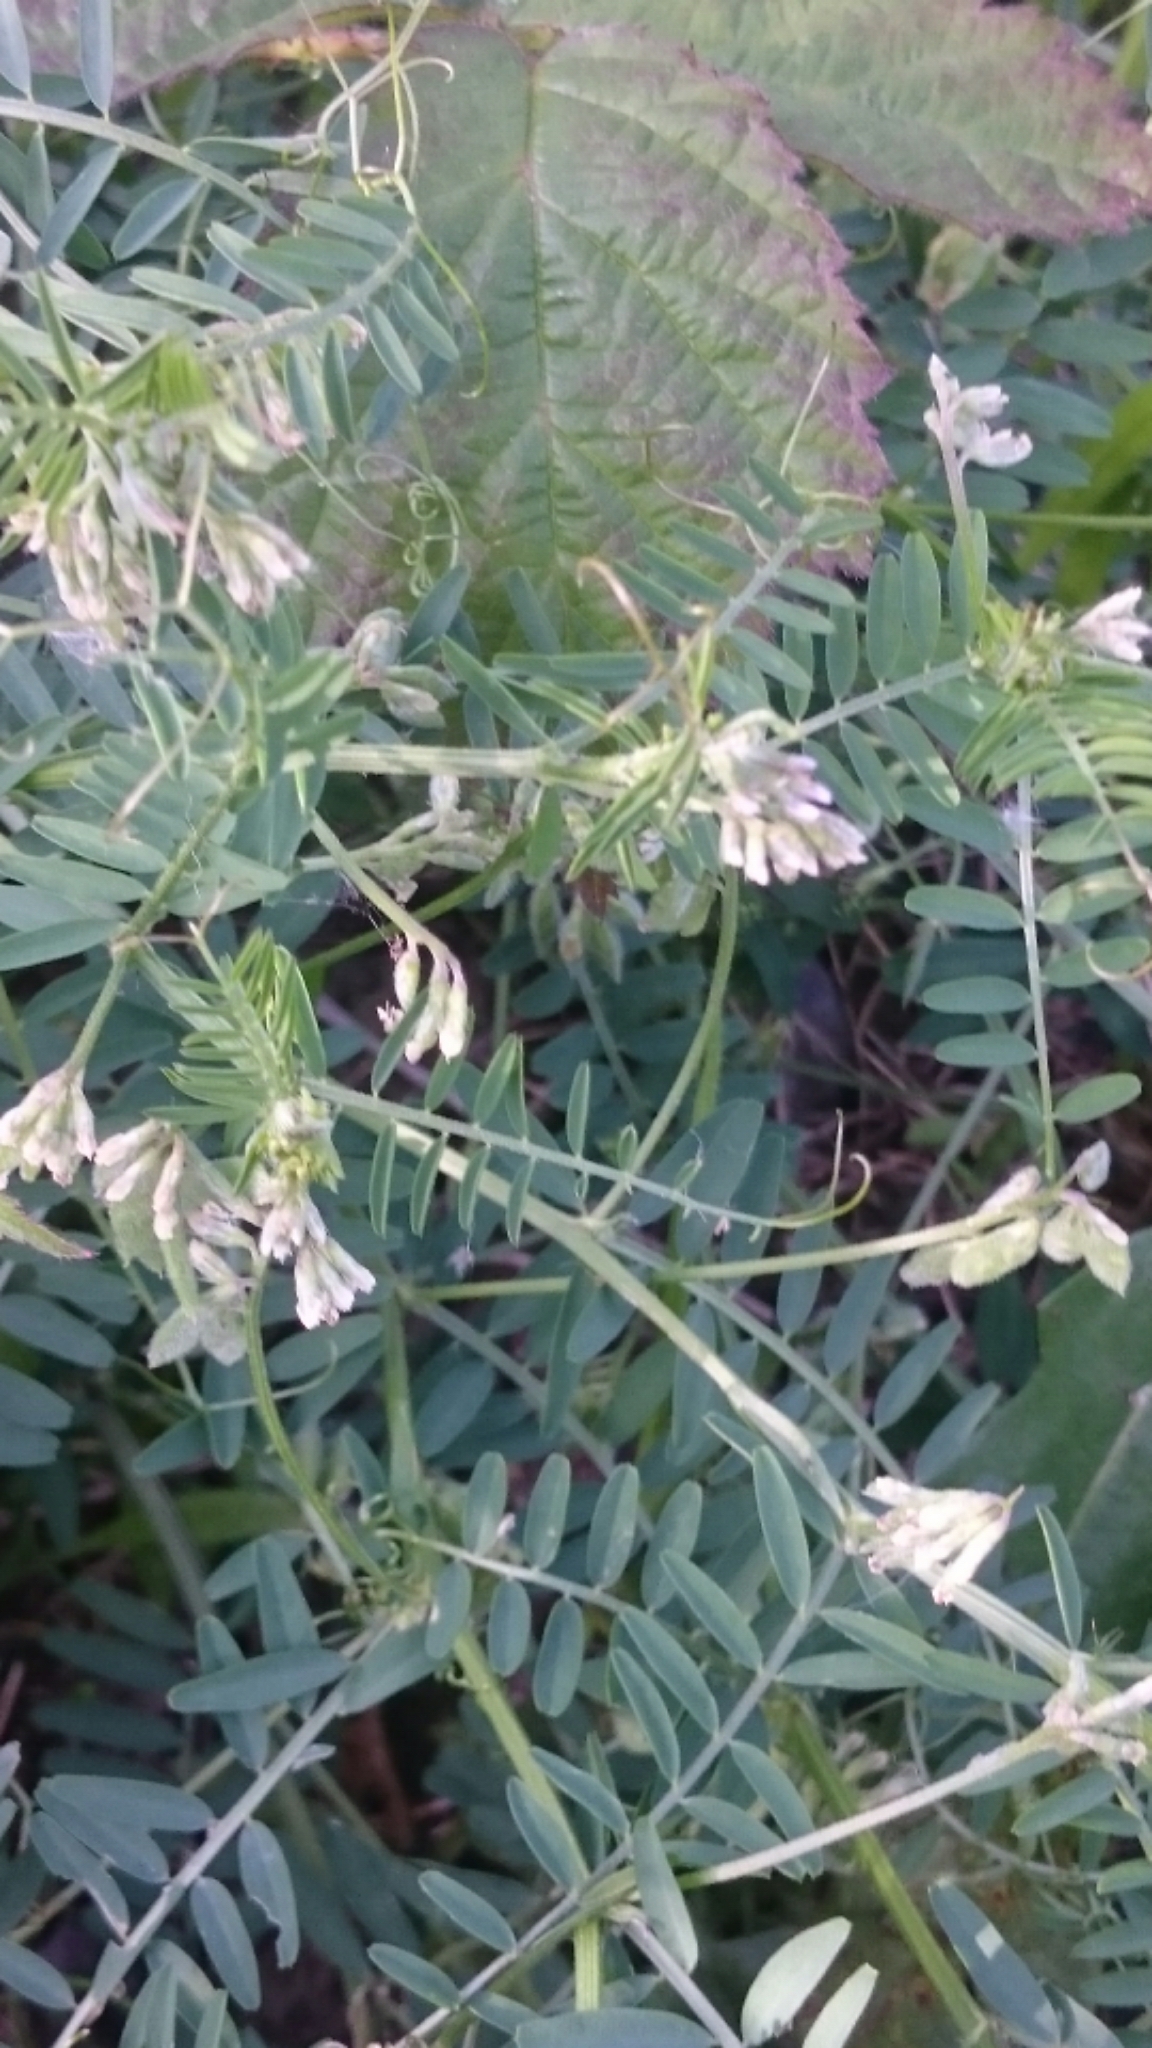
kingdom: Plantae
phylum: Tracheophyta
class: Magnoliopsida
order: Fabales
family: Fabaceae
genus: Vicia
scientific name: Vicia hirsuta
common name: Tiny vetch
